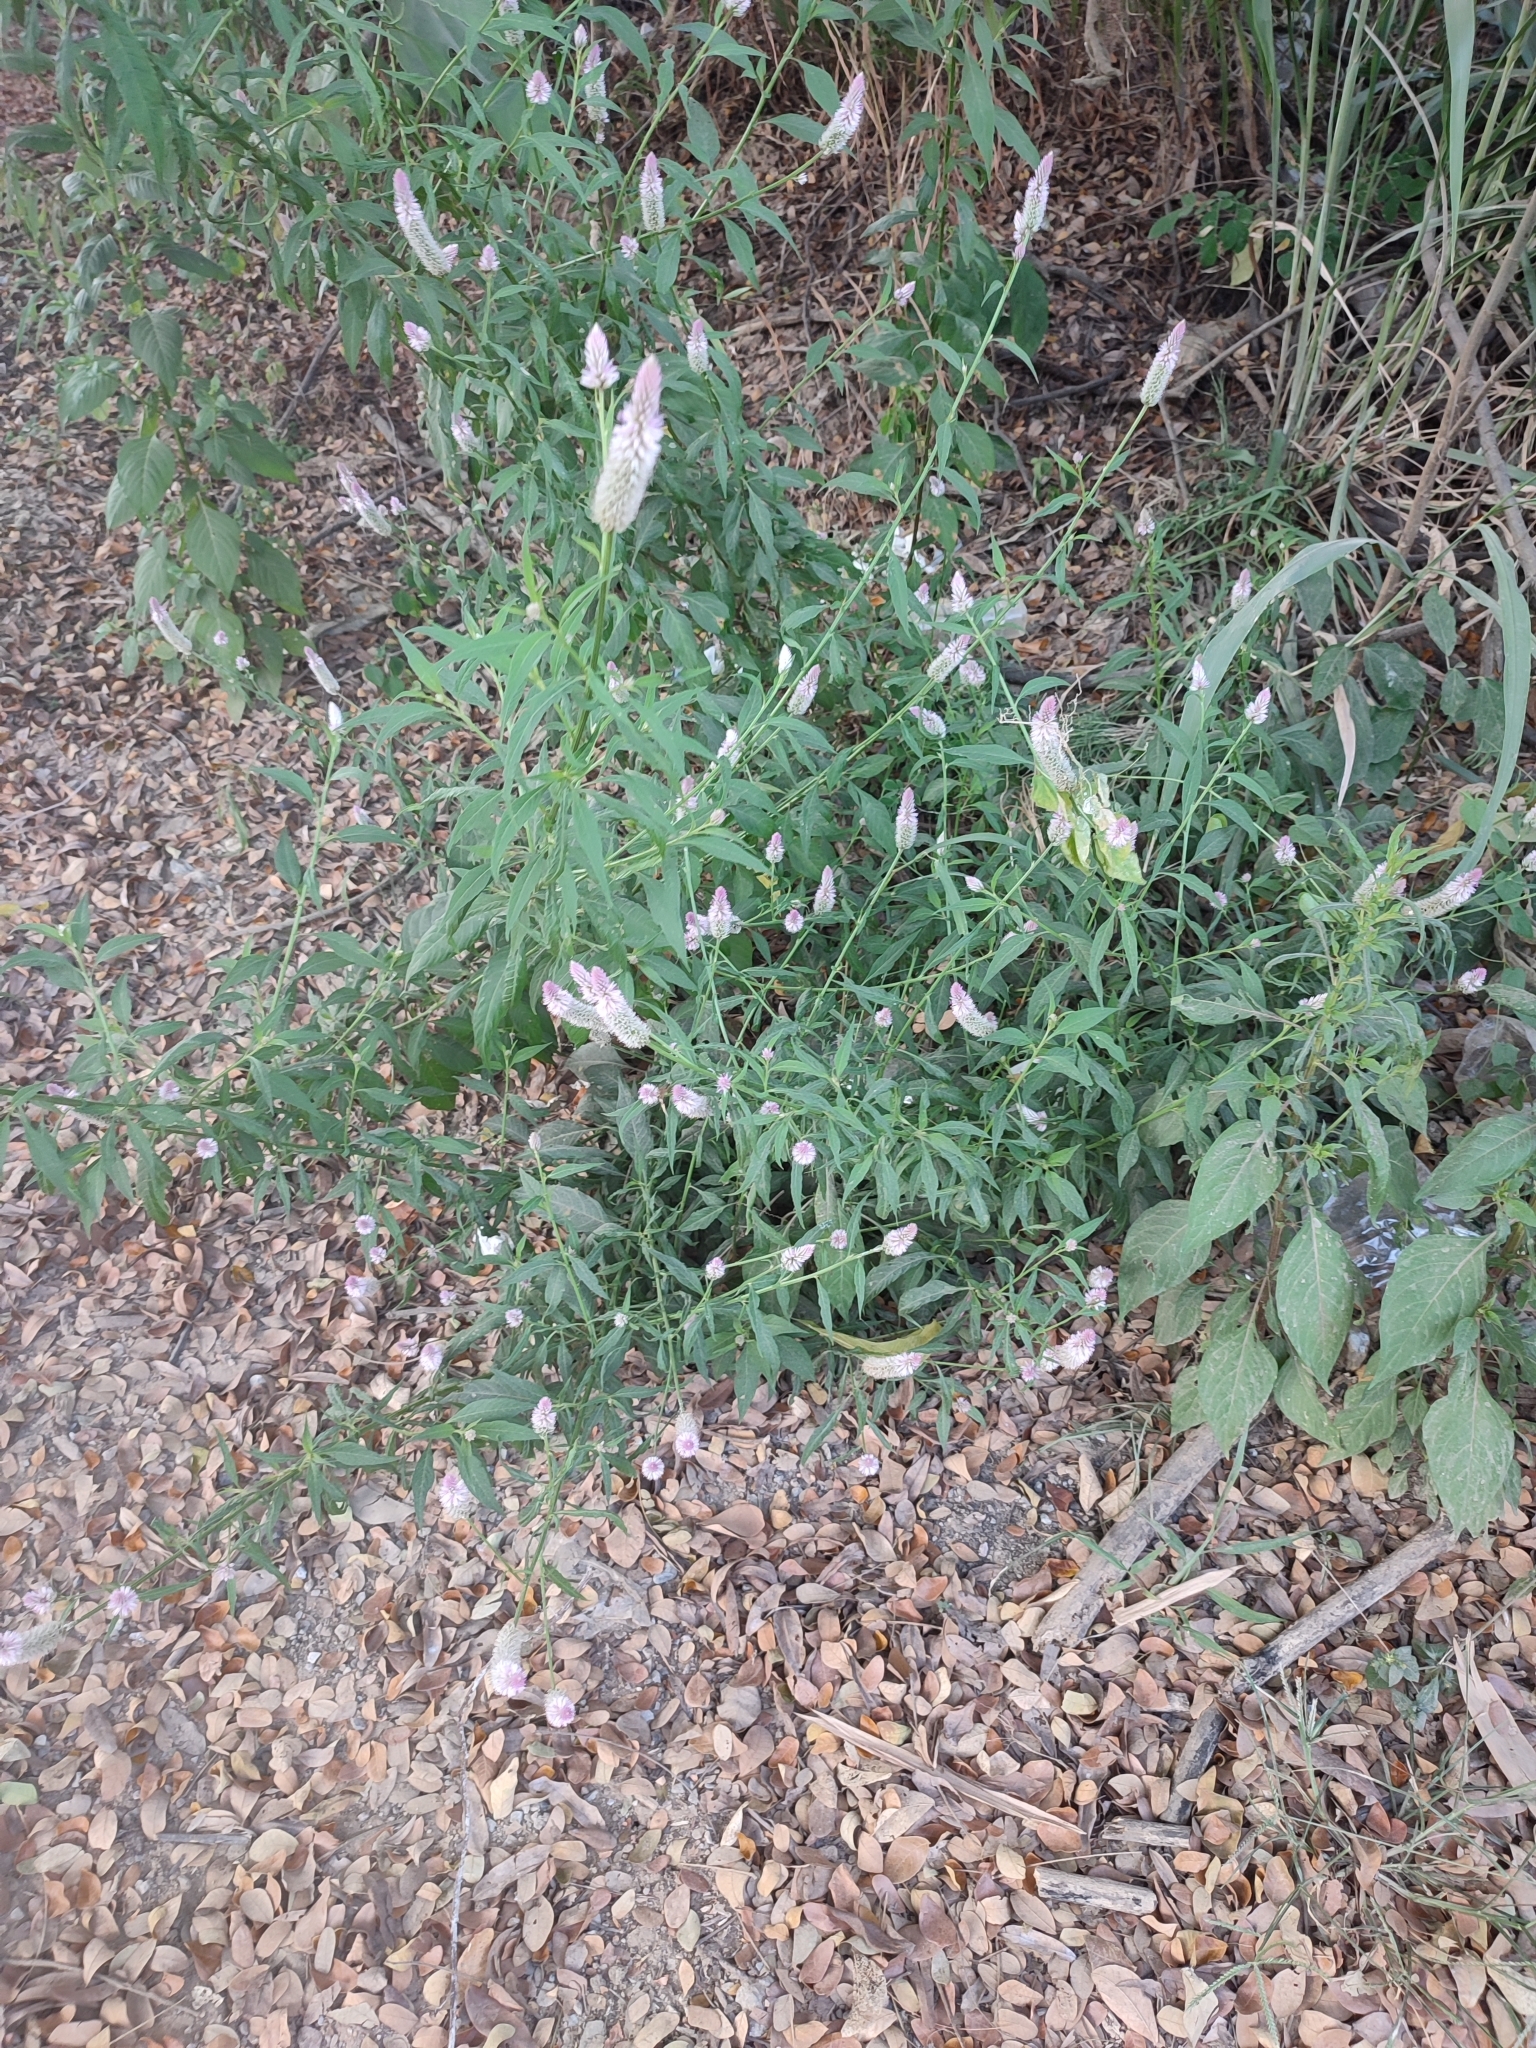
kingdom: Plantae
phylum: Tracheophyta
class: Magnoliopsida
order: Caryophyllales
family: Amaranthaceae
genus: Celosia
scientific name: Celosia argentea
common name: Feather cockscomb
